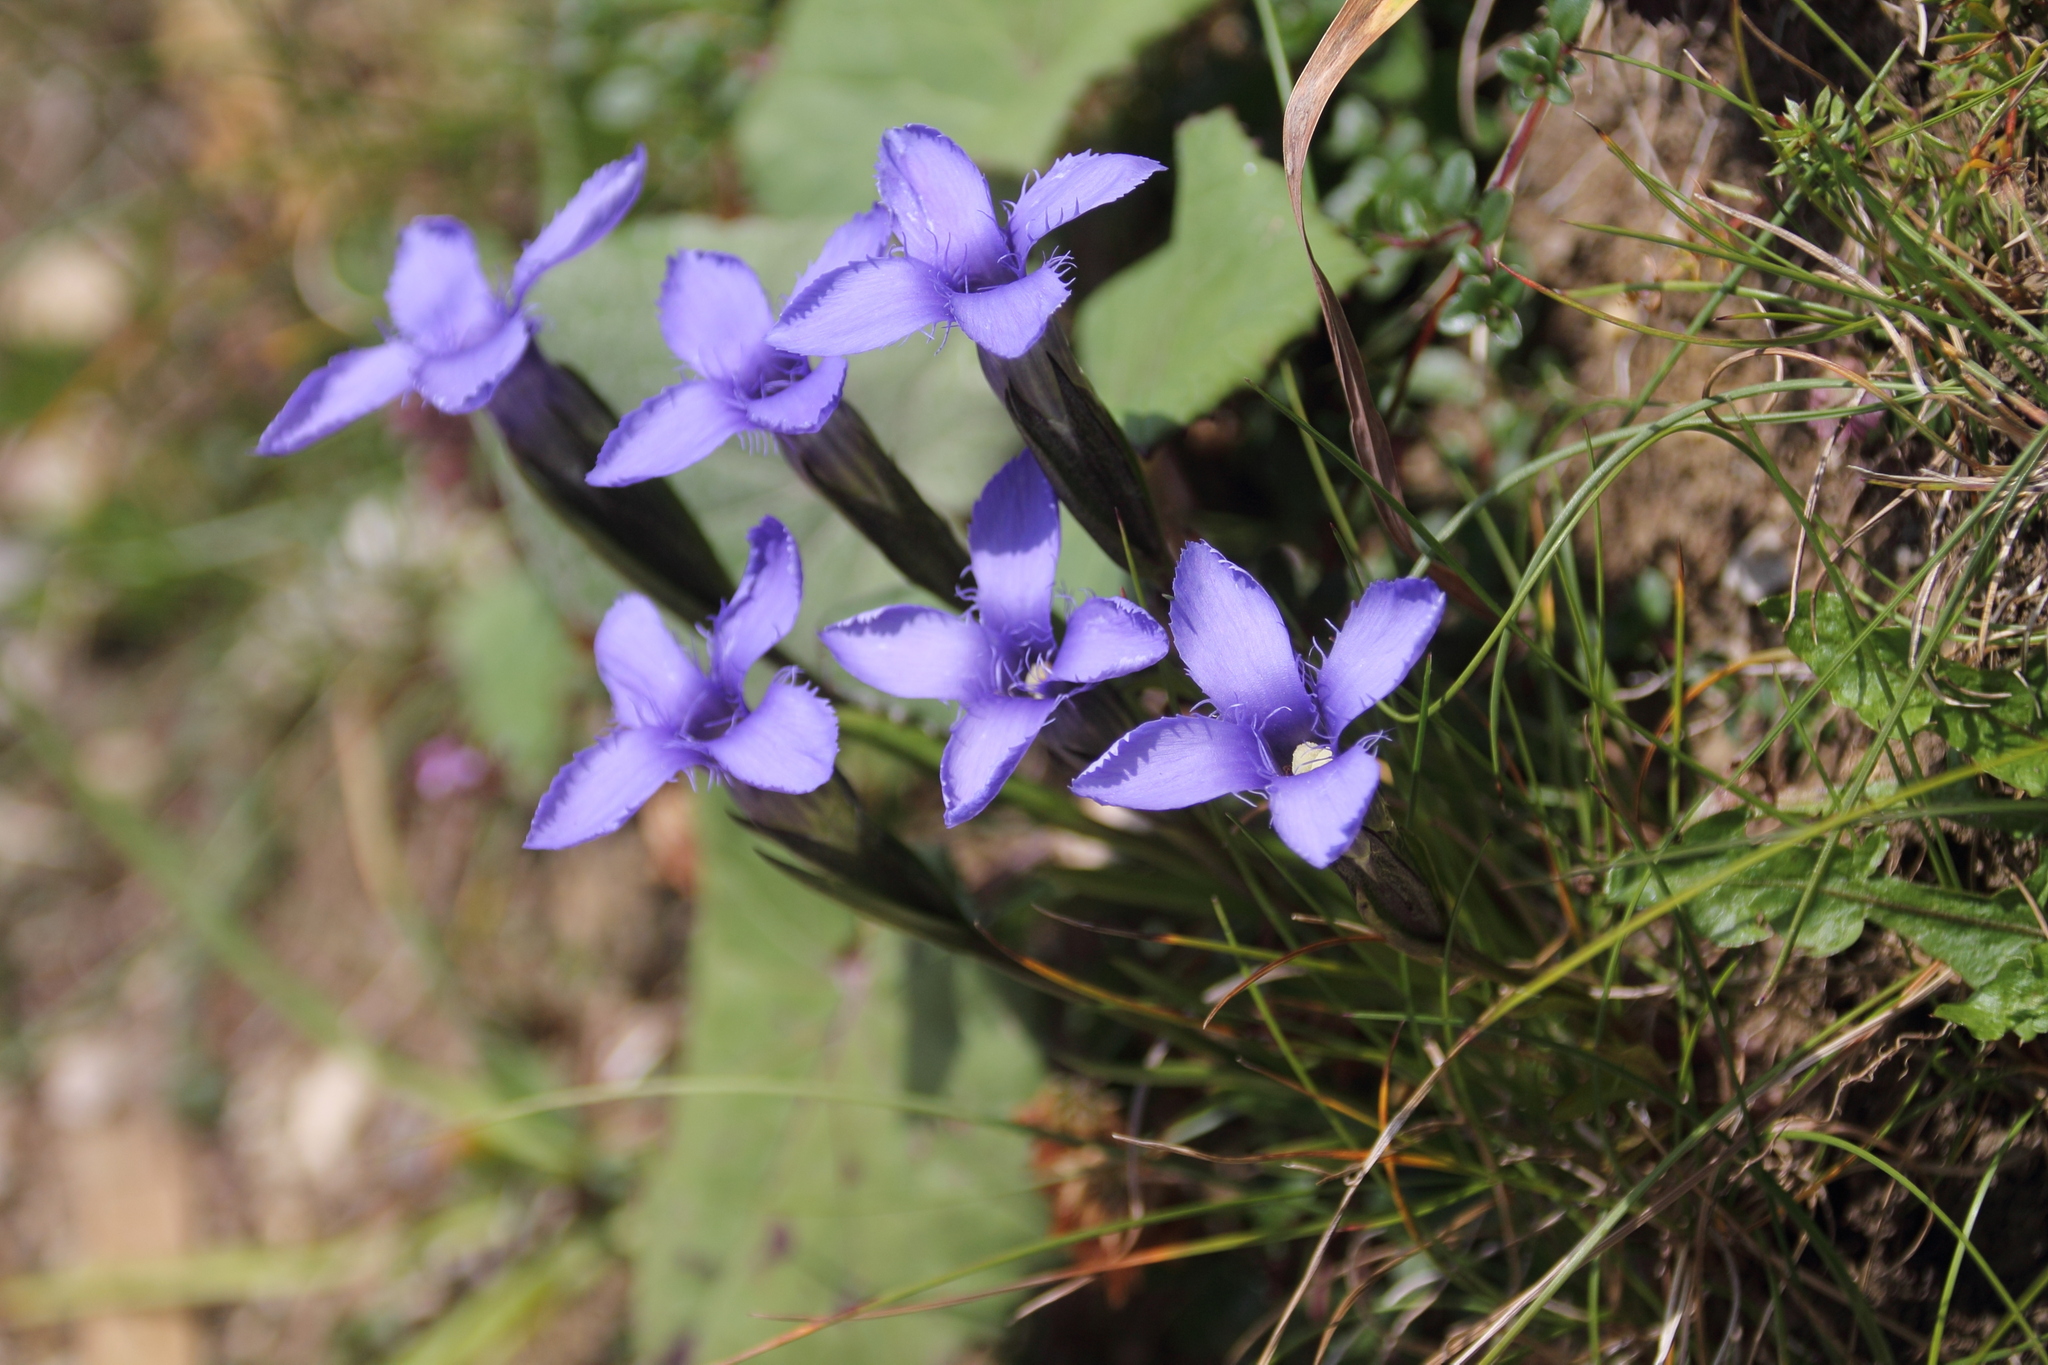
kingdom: Plantae
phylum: Tracheophyta
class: Magnoliopsida
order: Gentianales
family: Gentianaceae
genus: Gentianopsis
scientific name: Gentianopsis ciliata
